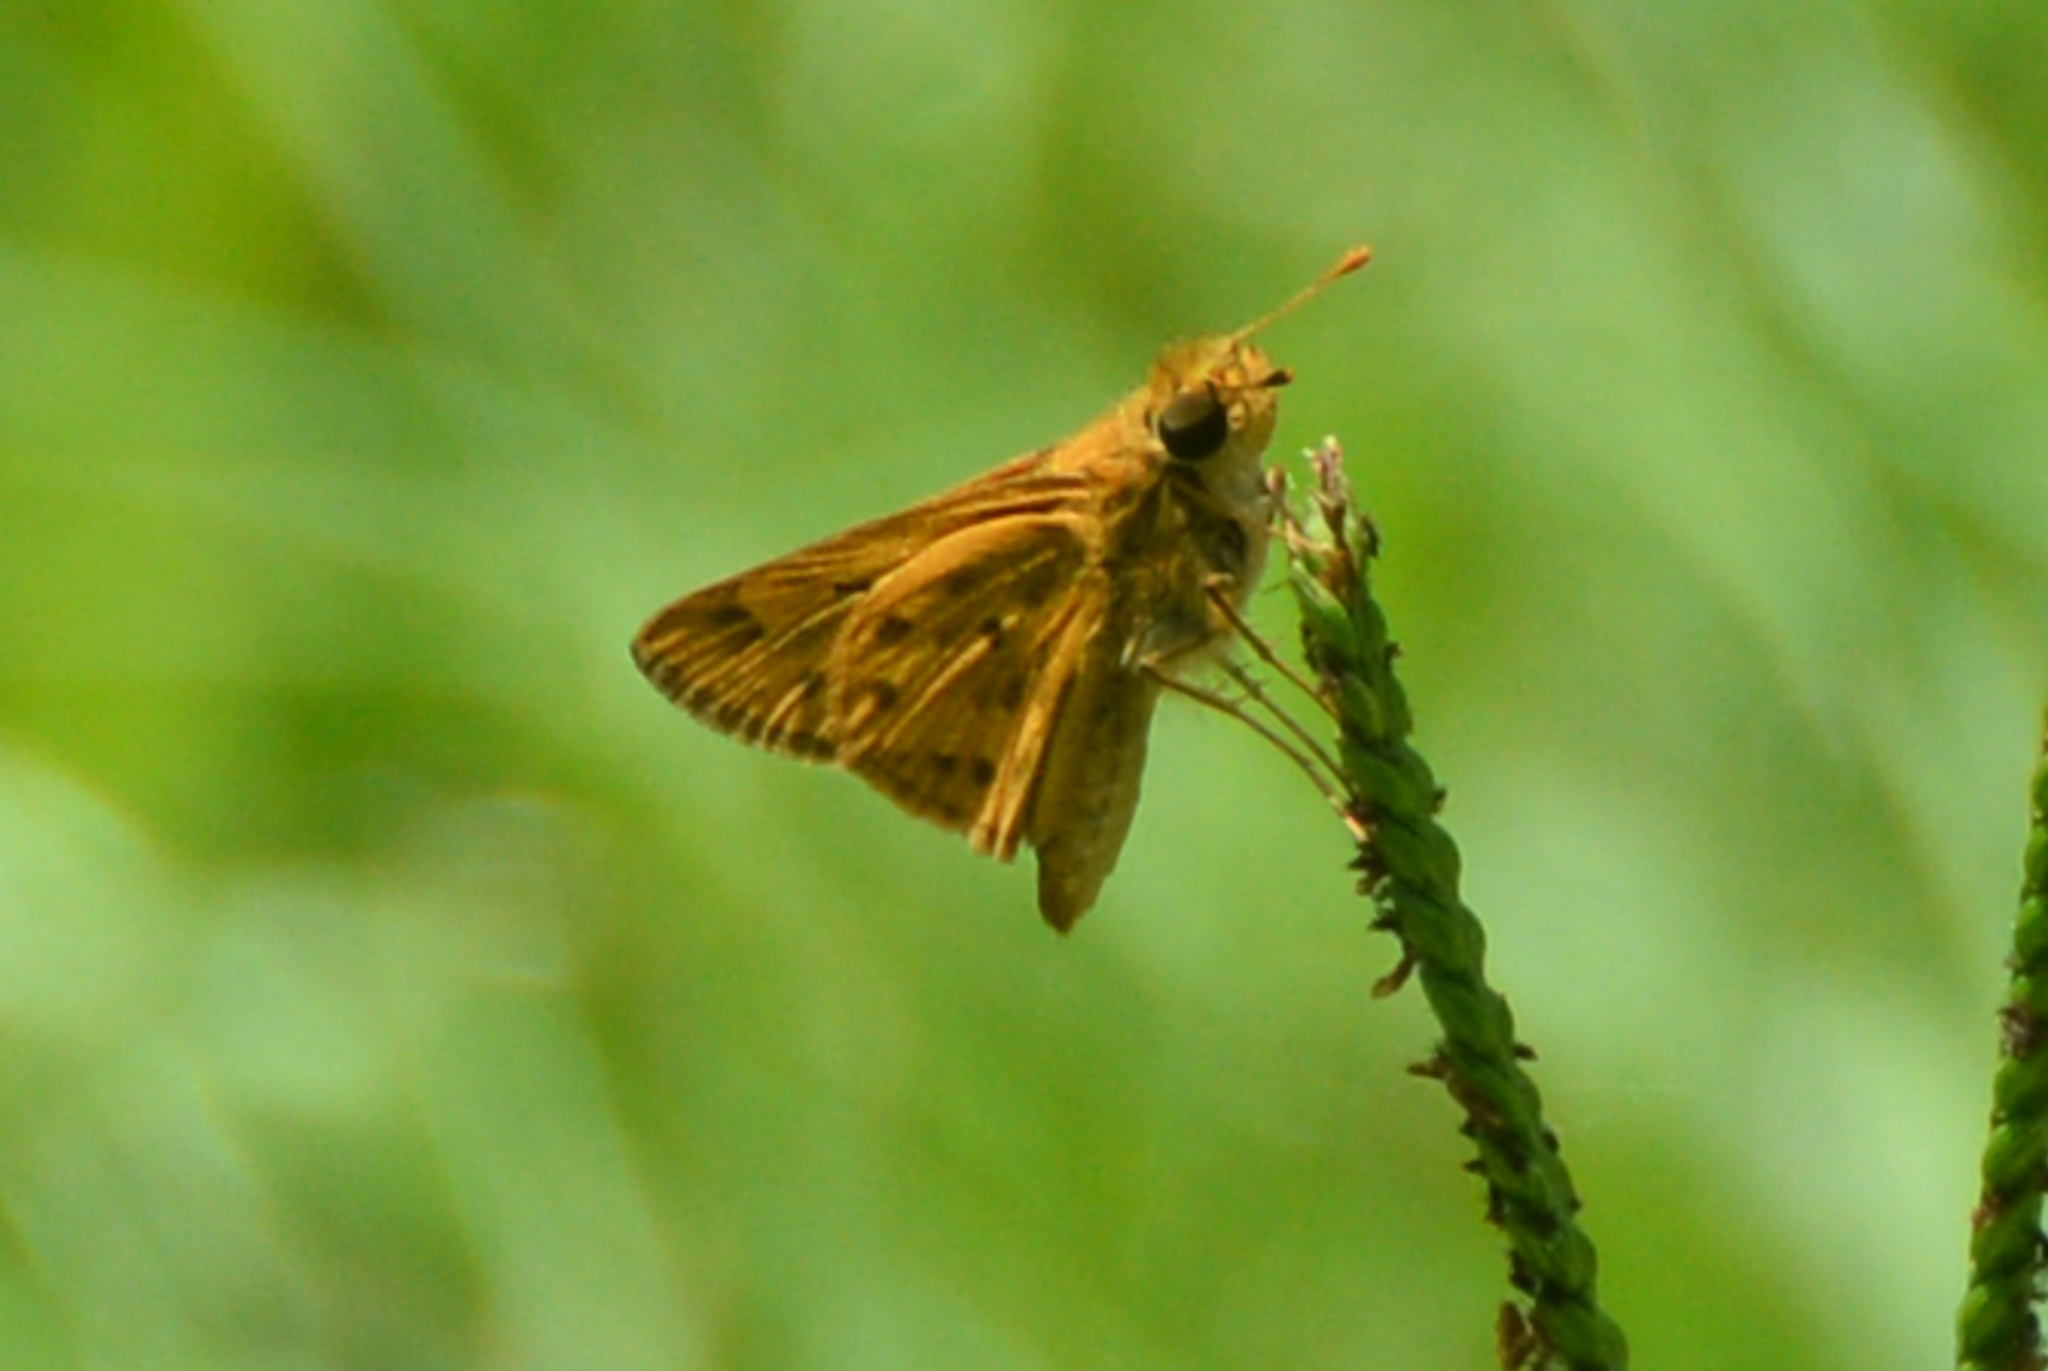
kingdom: Animalia
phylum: Arthropoda
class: Insecta
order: Lepidoptera
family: Hesperiidae
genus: Hylephila
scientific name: Hylephila phyleus
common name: Fiery skipper
